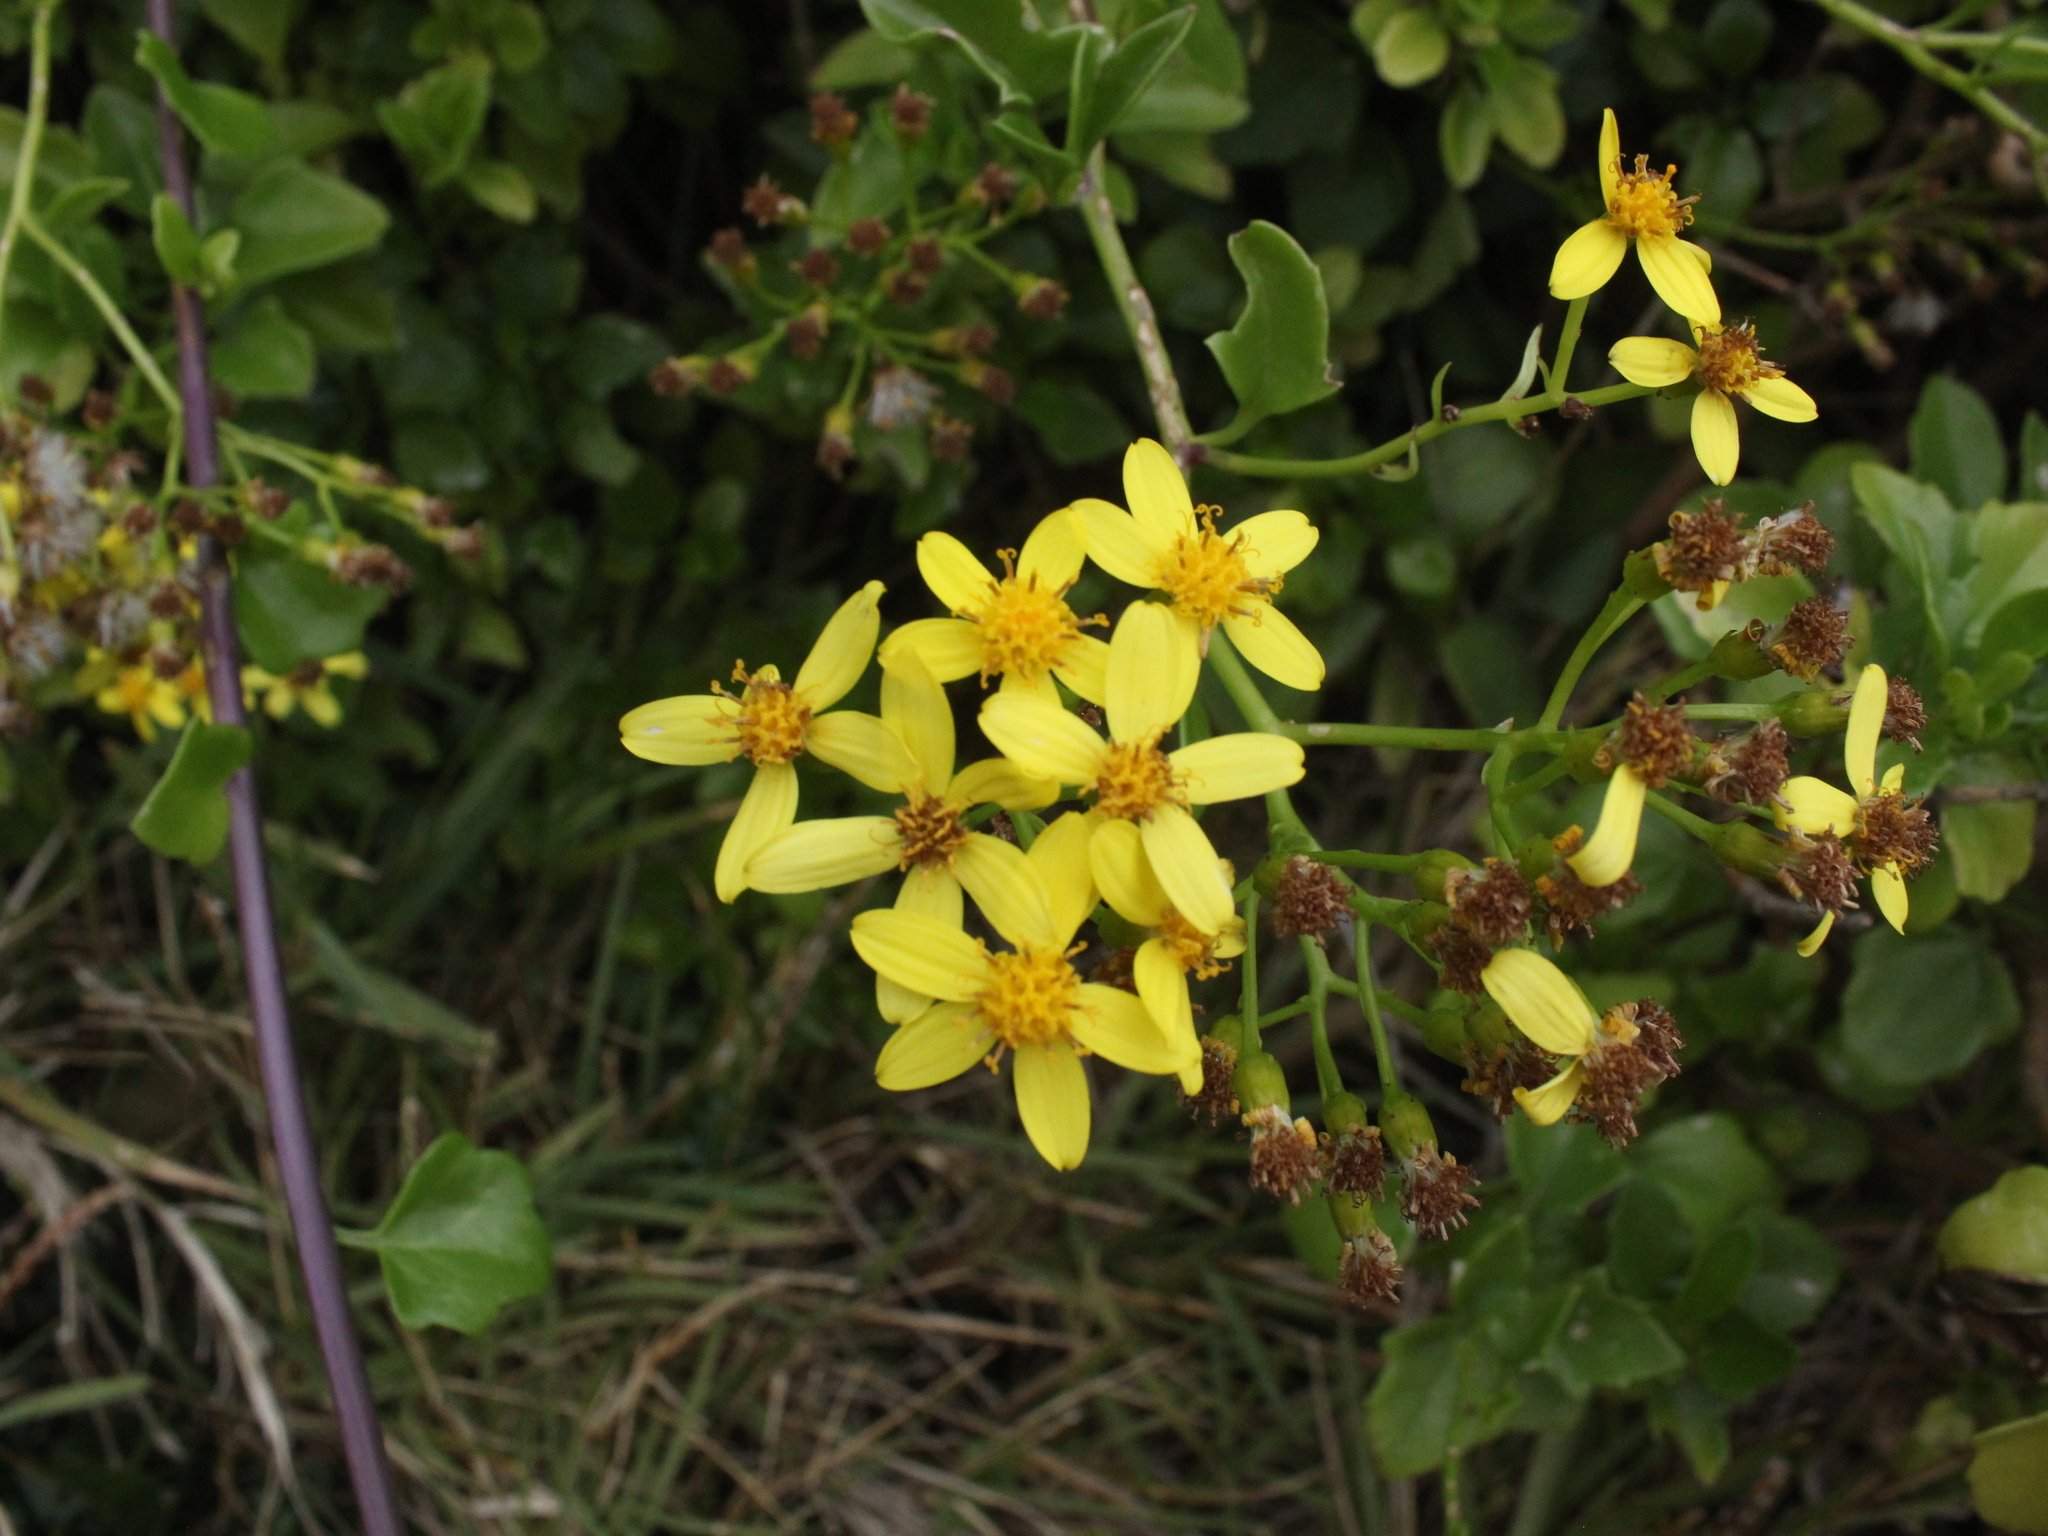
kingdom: Plantae
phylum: Tracheophyta
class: Magnoliopsida
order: Asterales
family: Asteraceae
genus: Senecio
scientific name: Senecio angulatus
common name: Climbing groundsel
